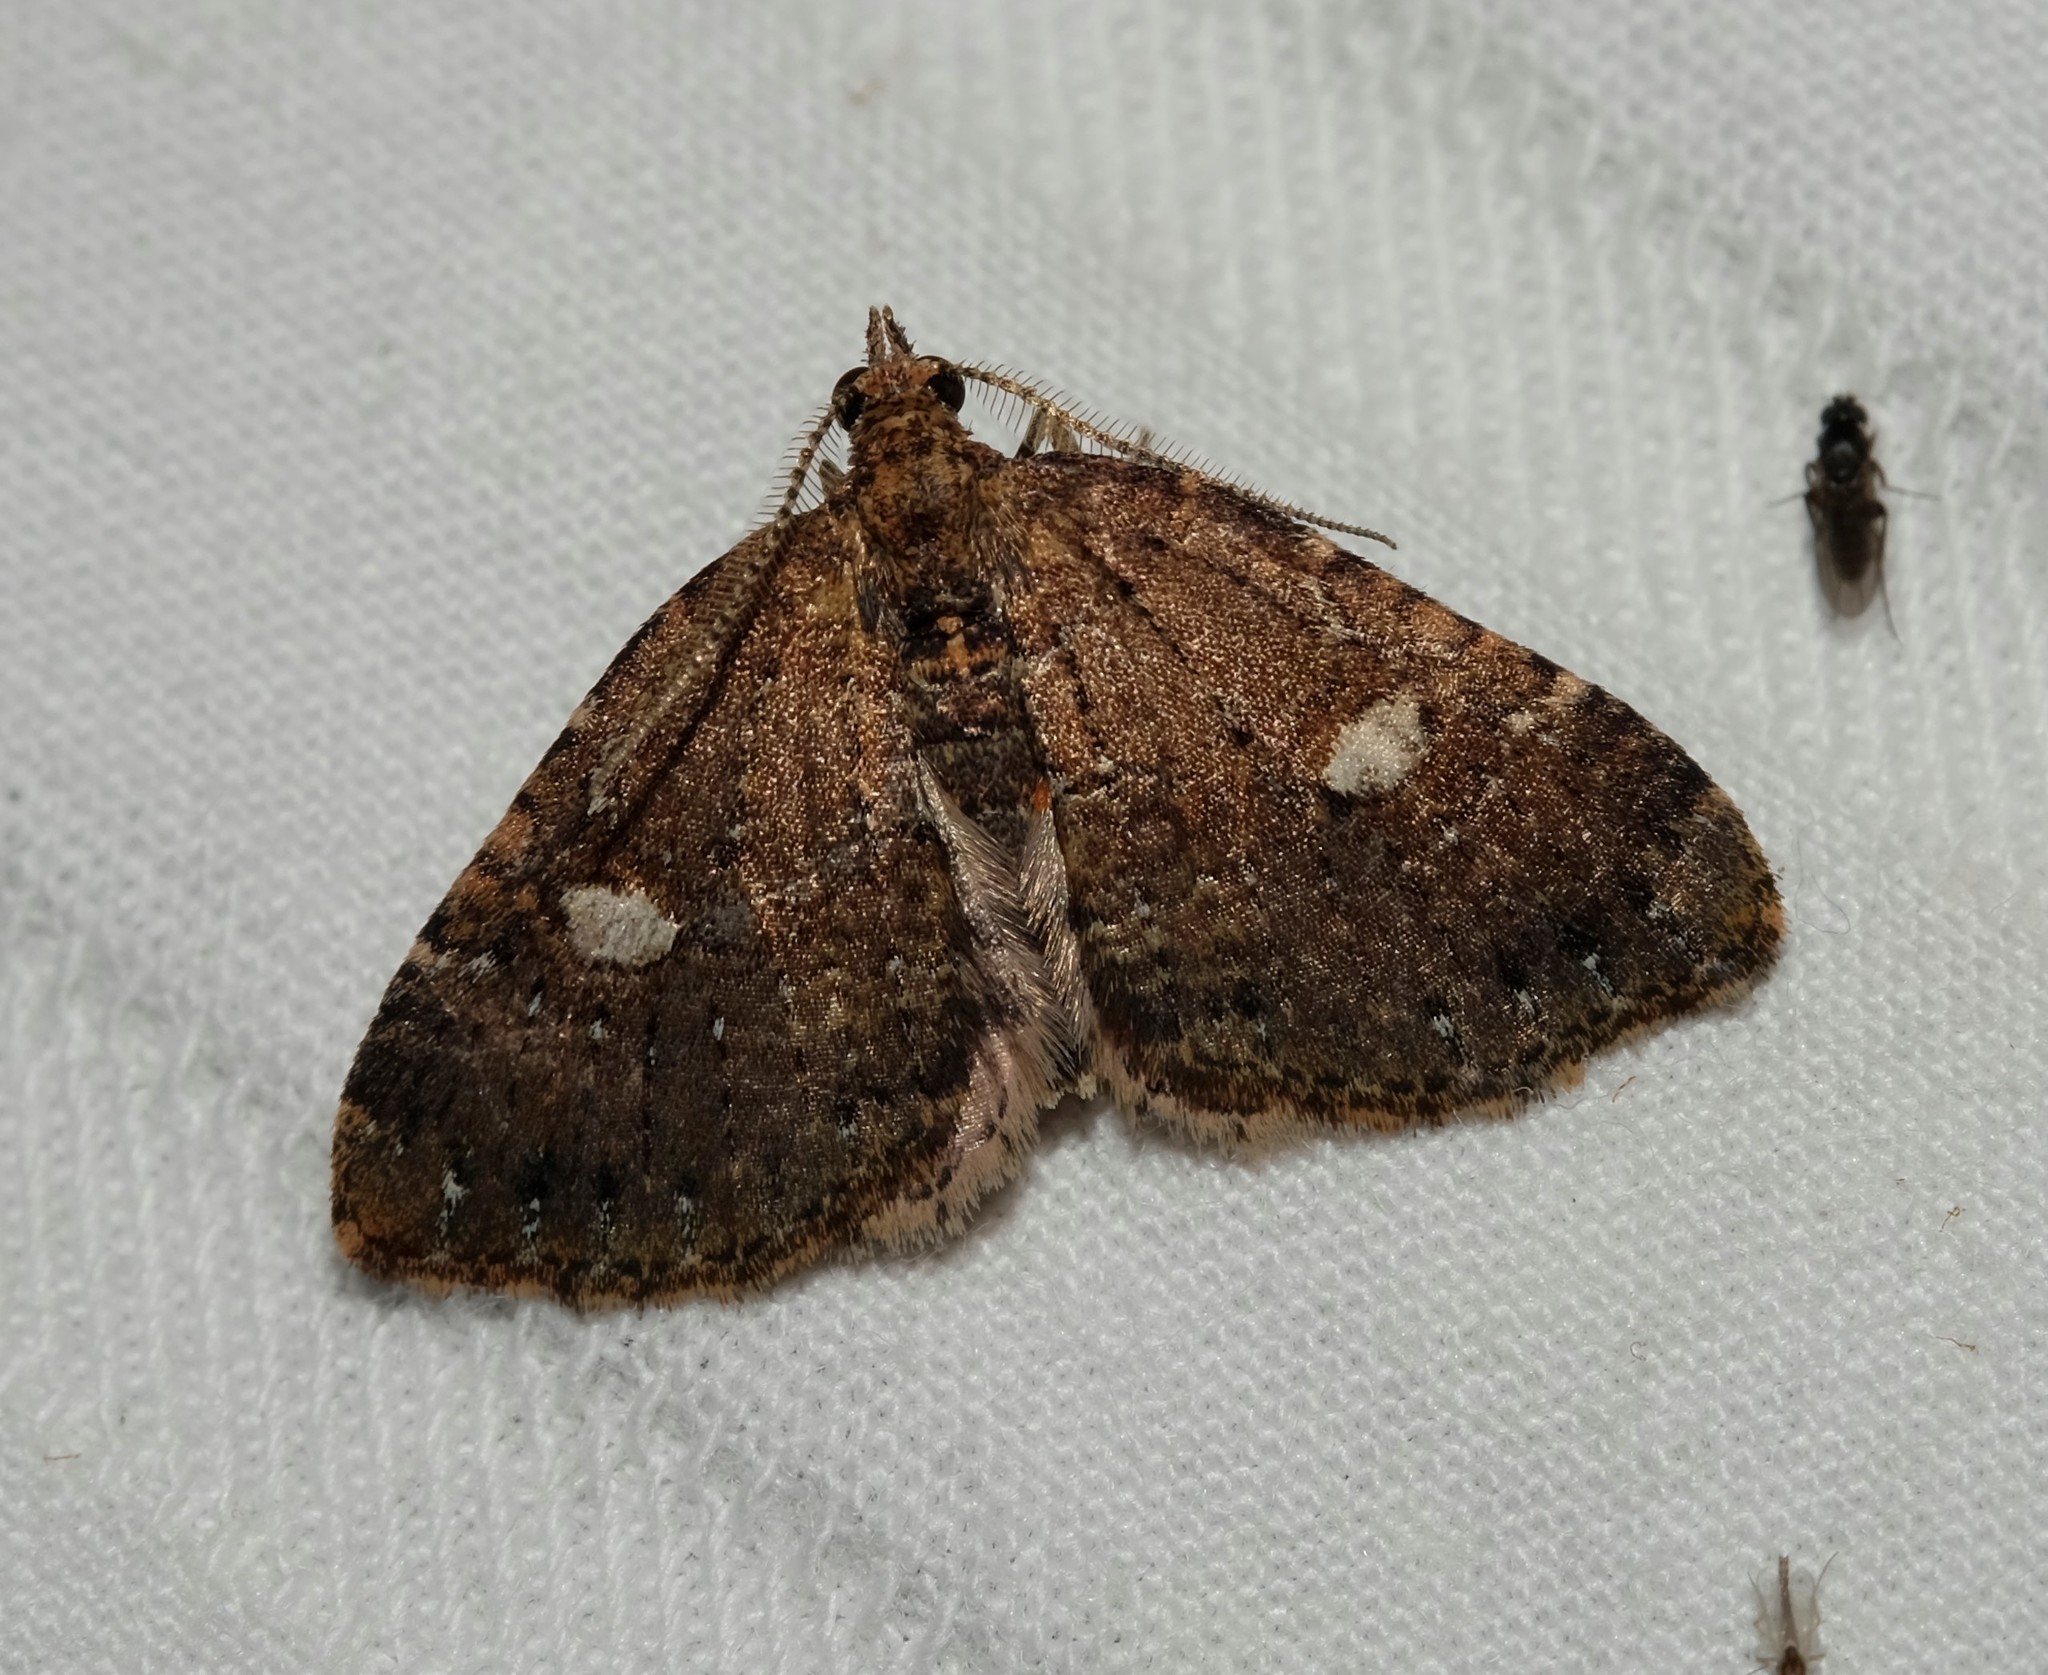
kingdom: Animalia
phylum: Arthropoda
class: Insecta
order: Lepidoptera
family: Geometridae
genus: Chrysolarentia
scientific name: Chrysolarentia pantoea
